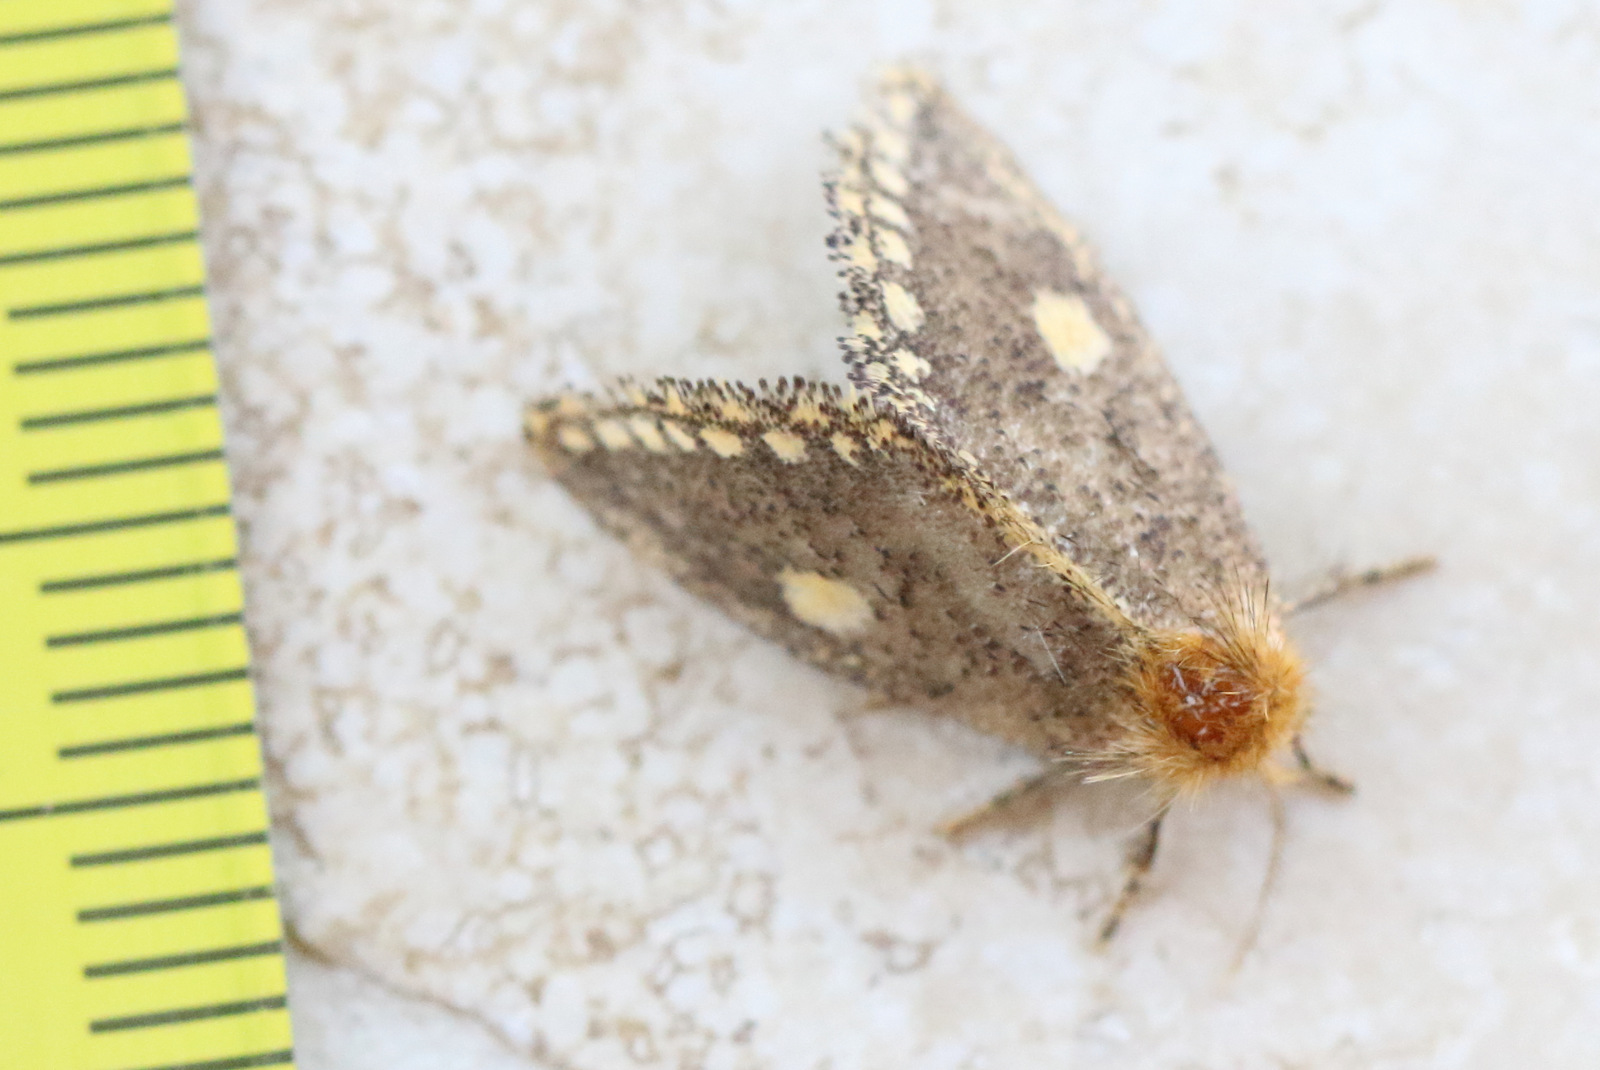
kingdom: Animalia
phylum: Arthropoda
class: Insecta
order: Lepidoptera
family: Notodontidae
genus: Epicoma
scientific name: Epicoma protrahens
